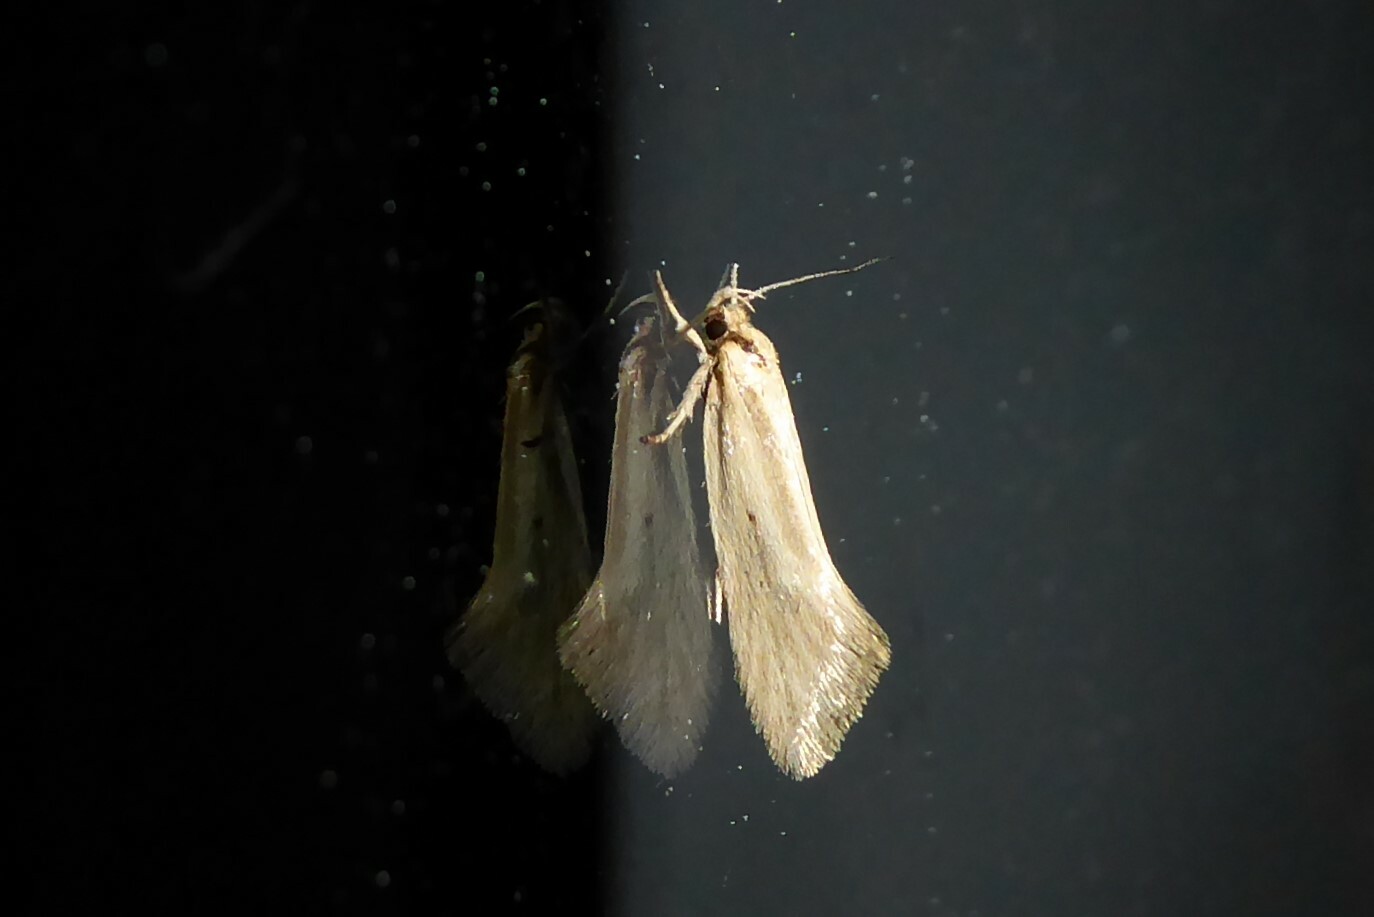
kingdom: Animalia
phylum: Arthropoda
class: Insecta
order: Lepidoptera
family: Oecophoridae
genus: Tingena
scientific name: Tingena chloradelpha
